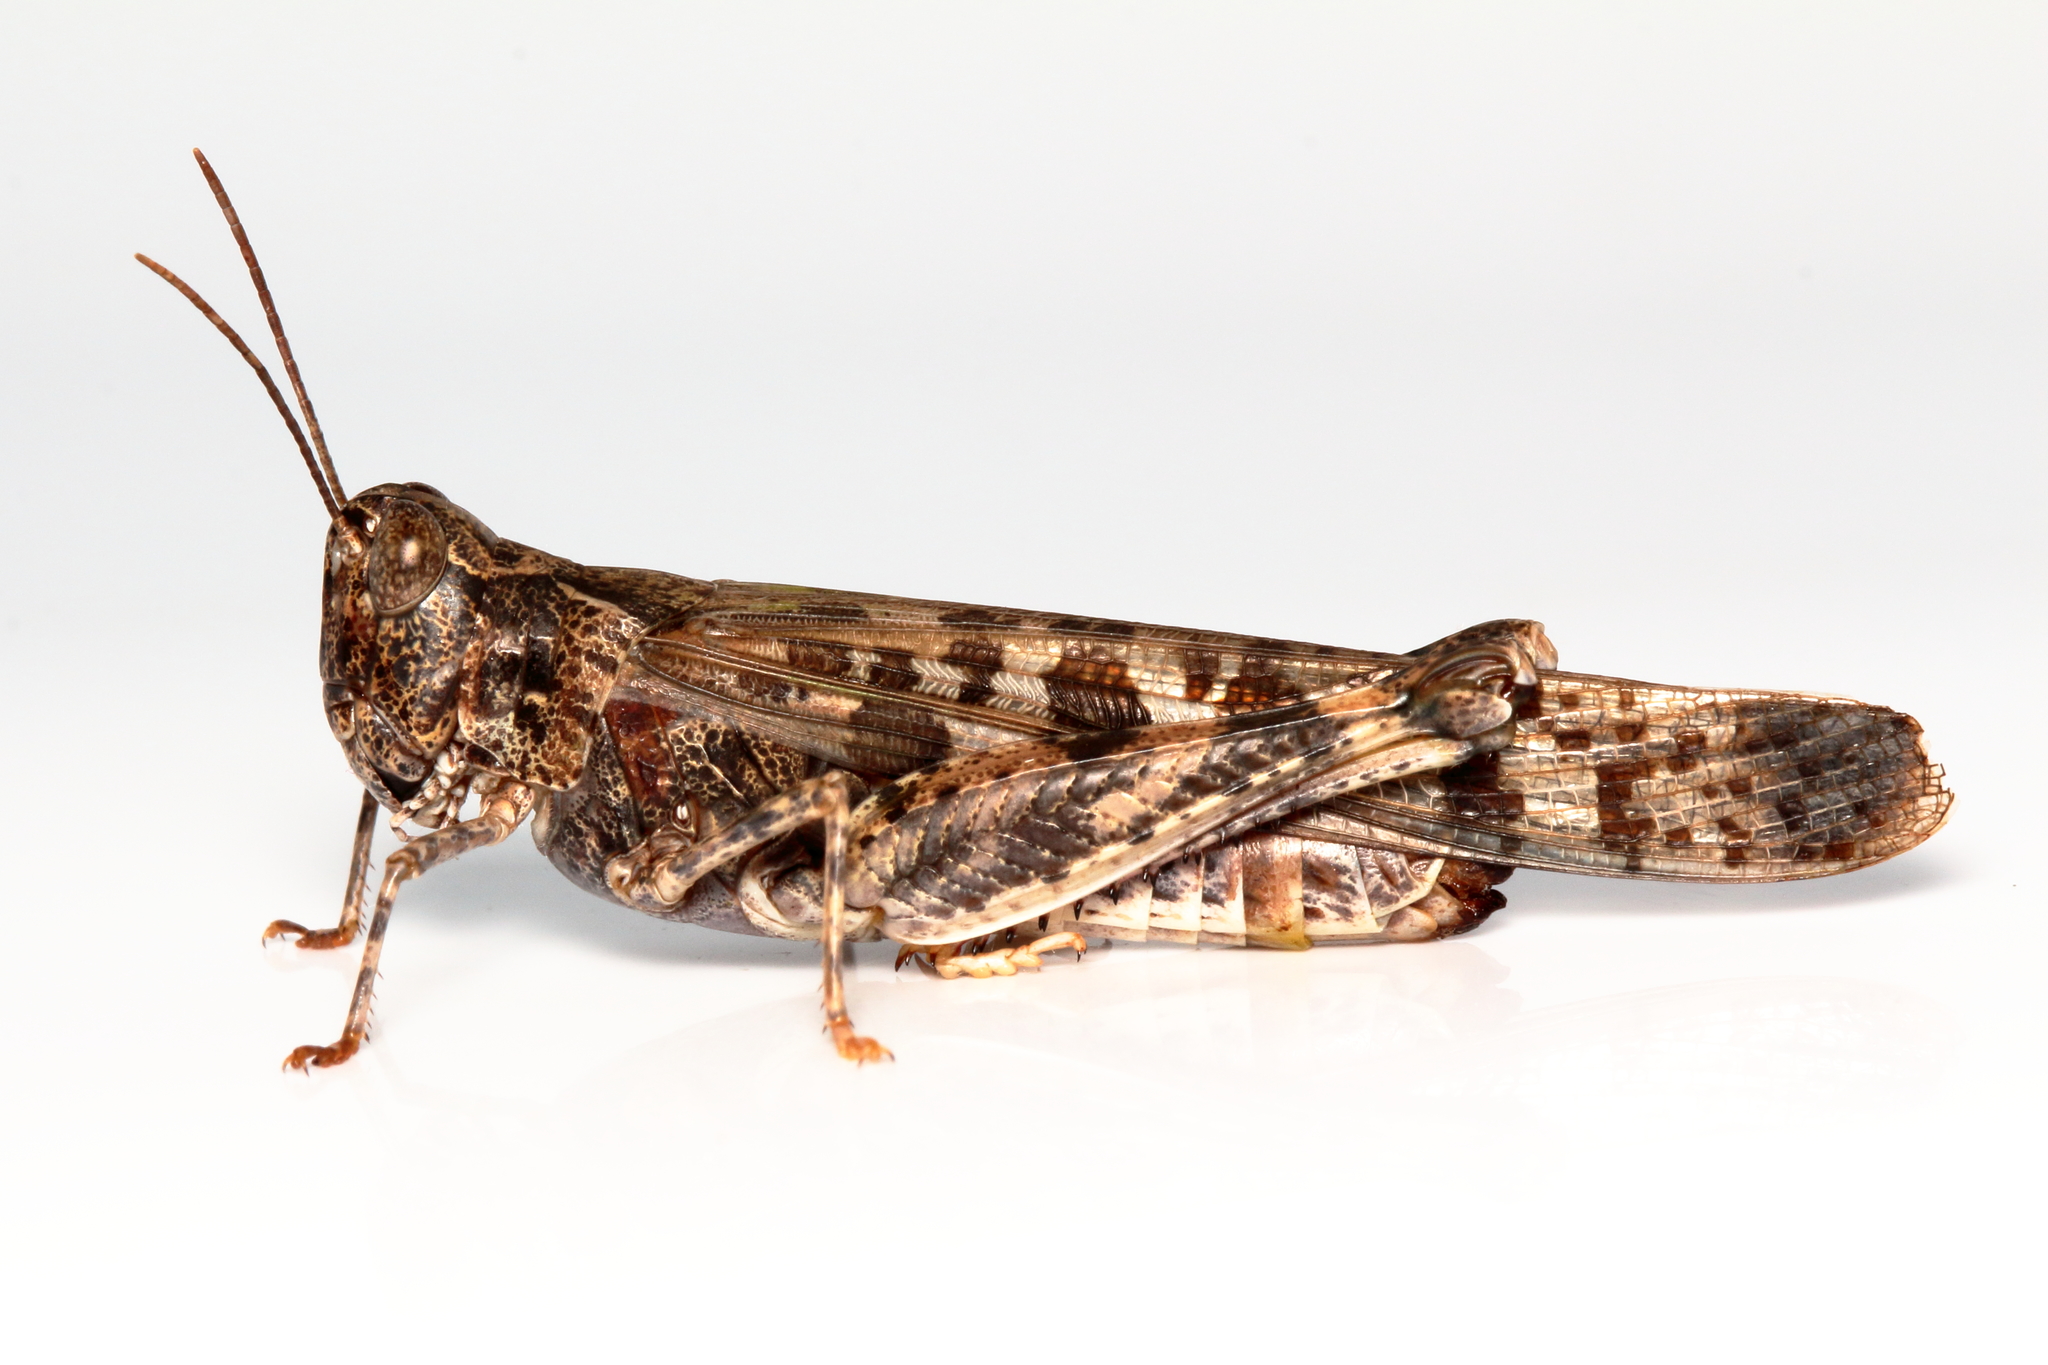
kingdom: Animalia
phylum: Arthropoda
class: Insecta
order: Orthoptera
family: Acrididae
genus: Chortoicetes
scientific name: Chortoicetes terminifera
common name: Australian plague locust
